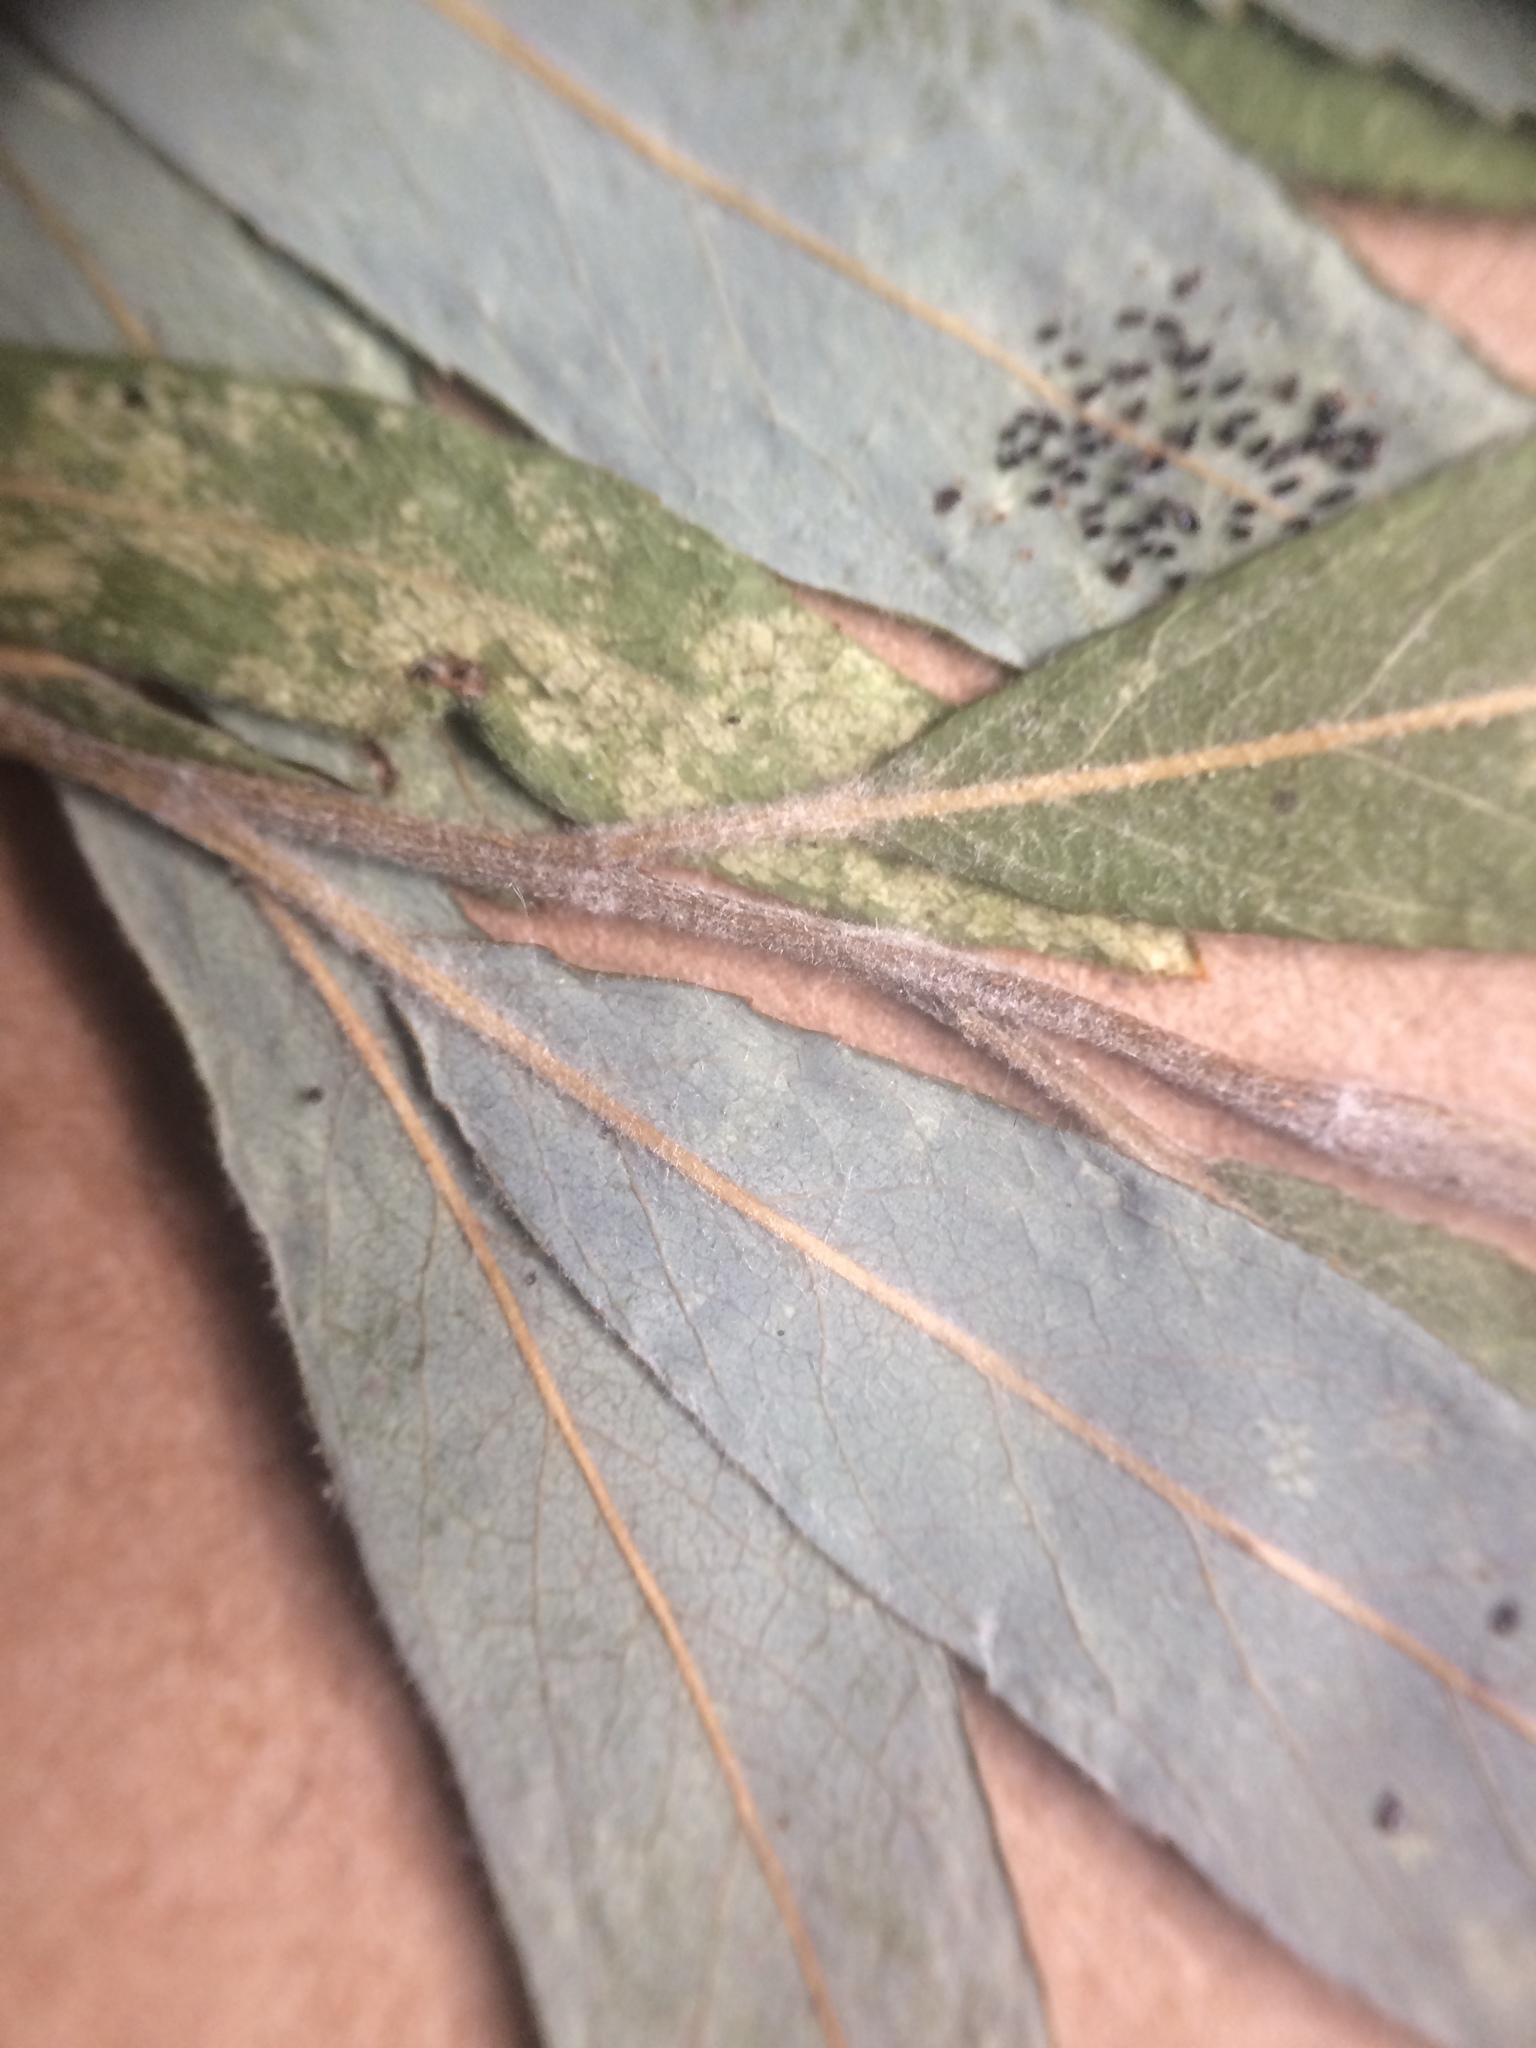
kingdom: Plantae
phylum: Tracheophyta
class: Magnoliopsida
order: Malpighiales
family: Salicaceae
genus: Salix
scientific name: Salix petiolaris
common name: Slender willow
